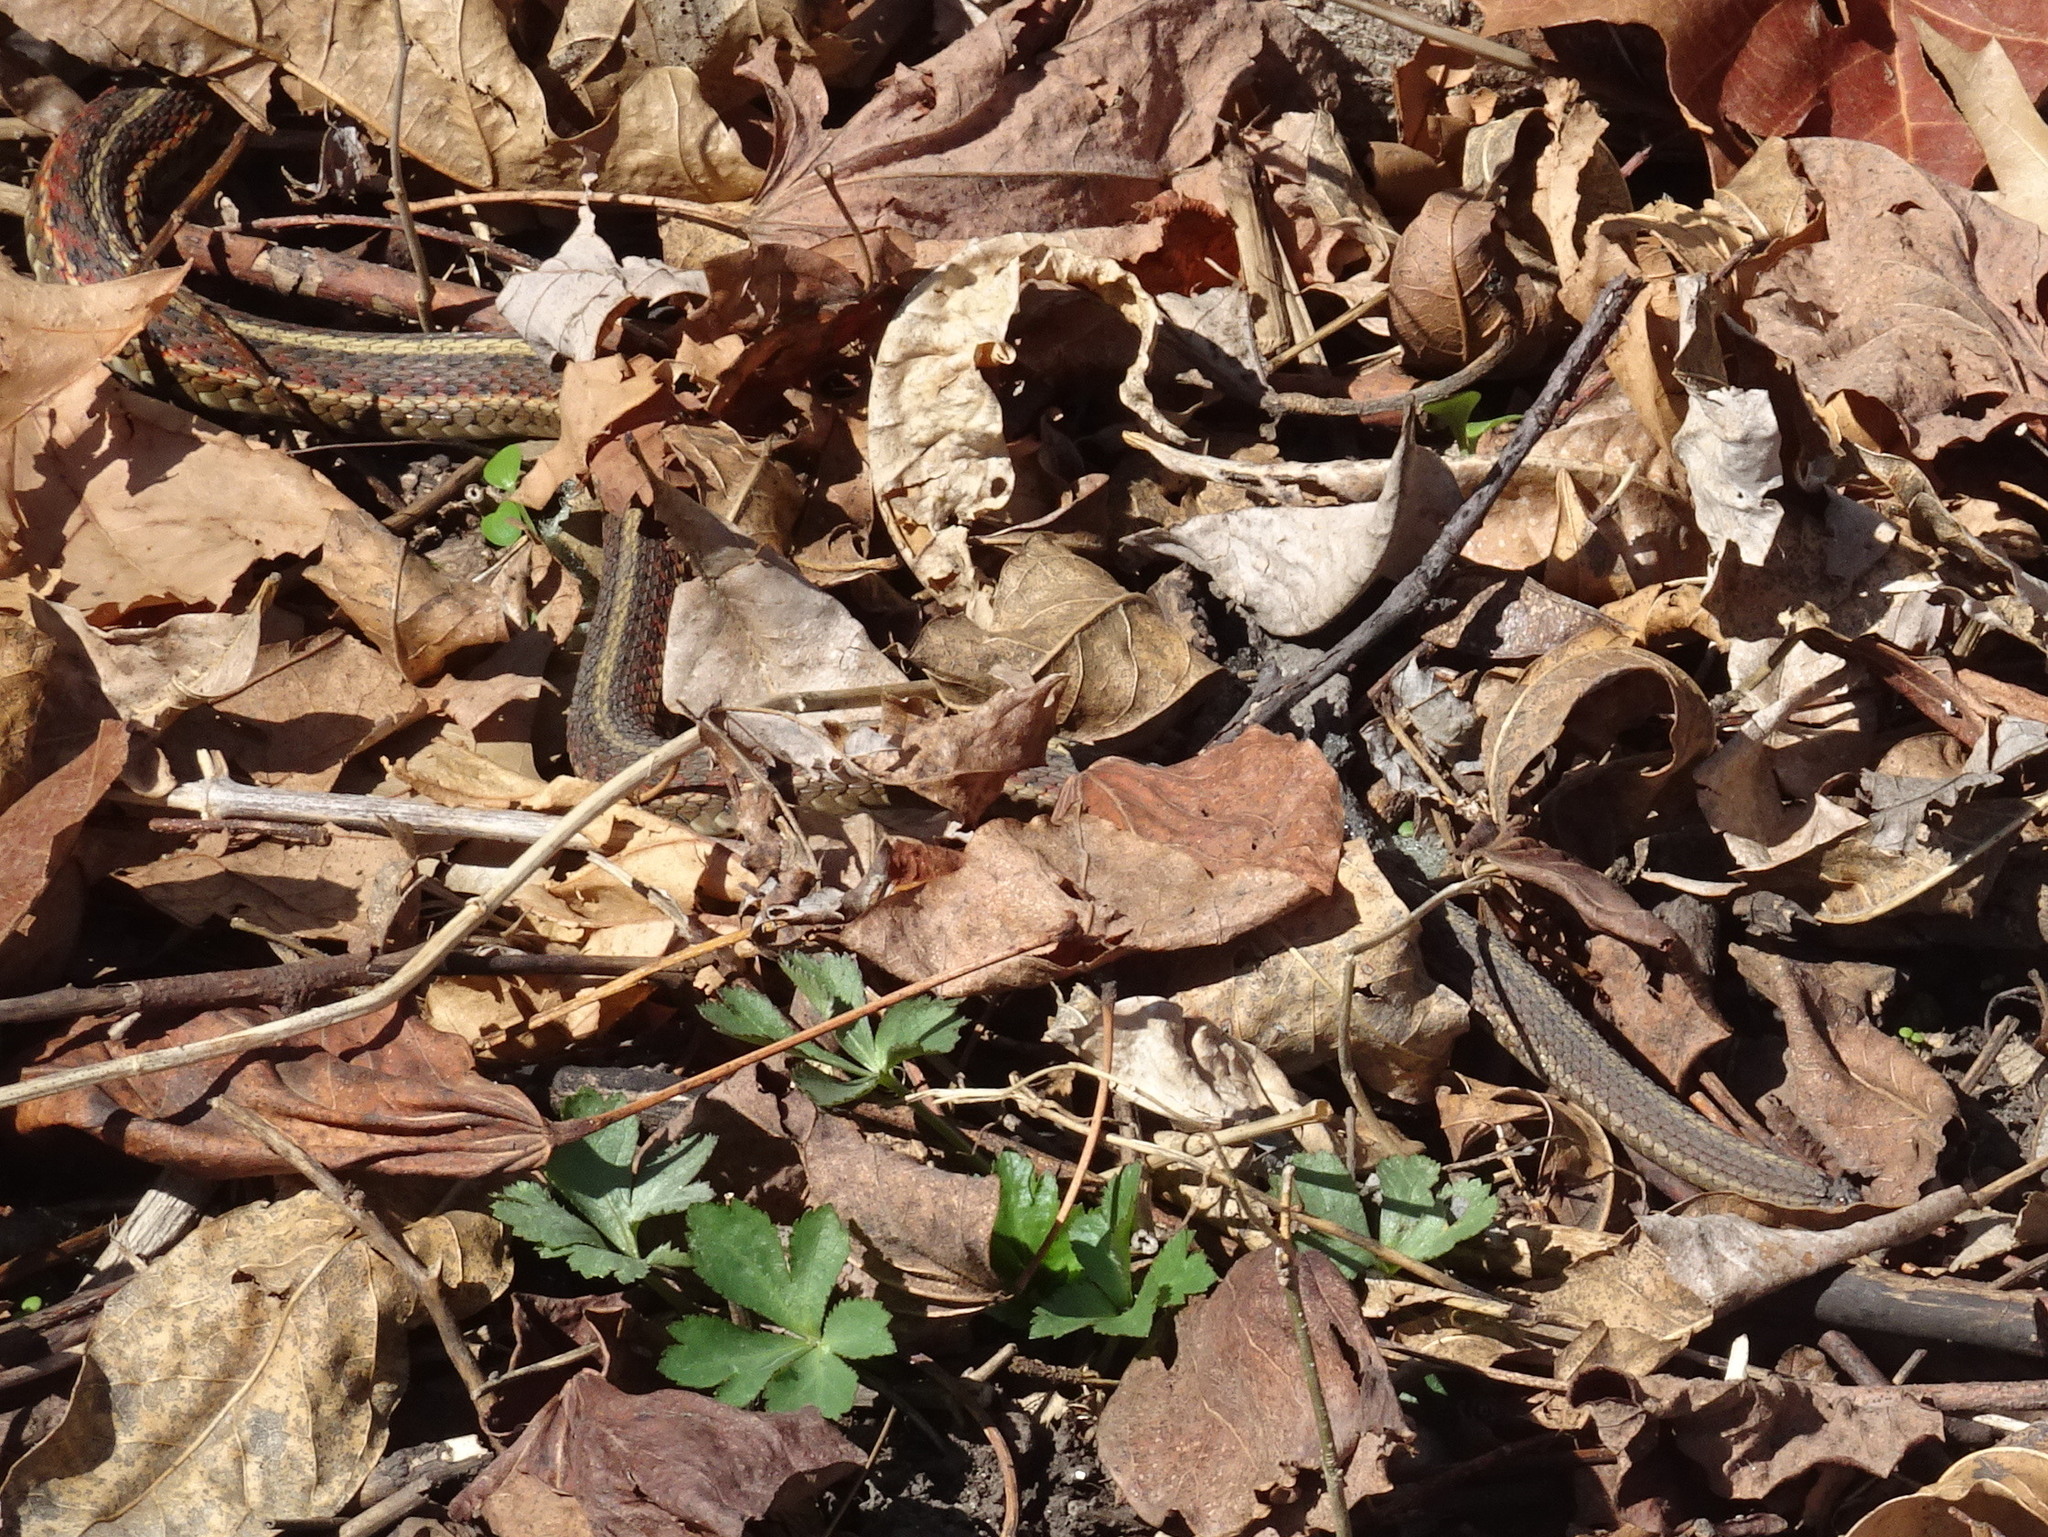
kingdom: Animalia
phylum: Chordata
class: Squamata
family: Colubridae
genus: Thamnophis
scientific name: Thamnophis sirtalis
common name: Common garter snake
